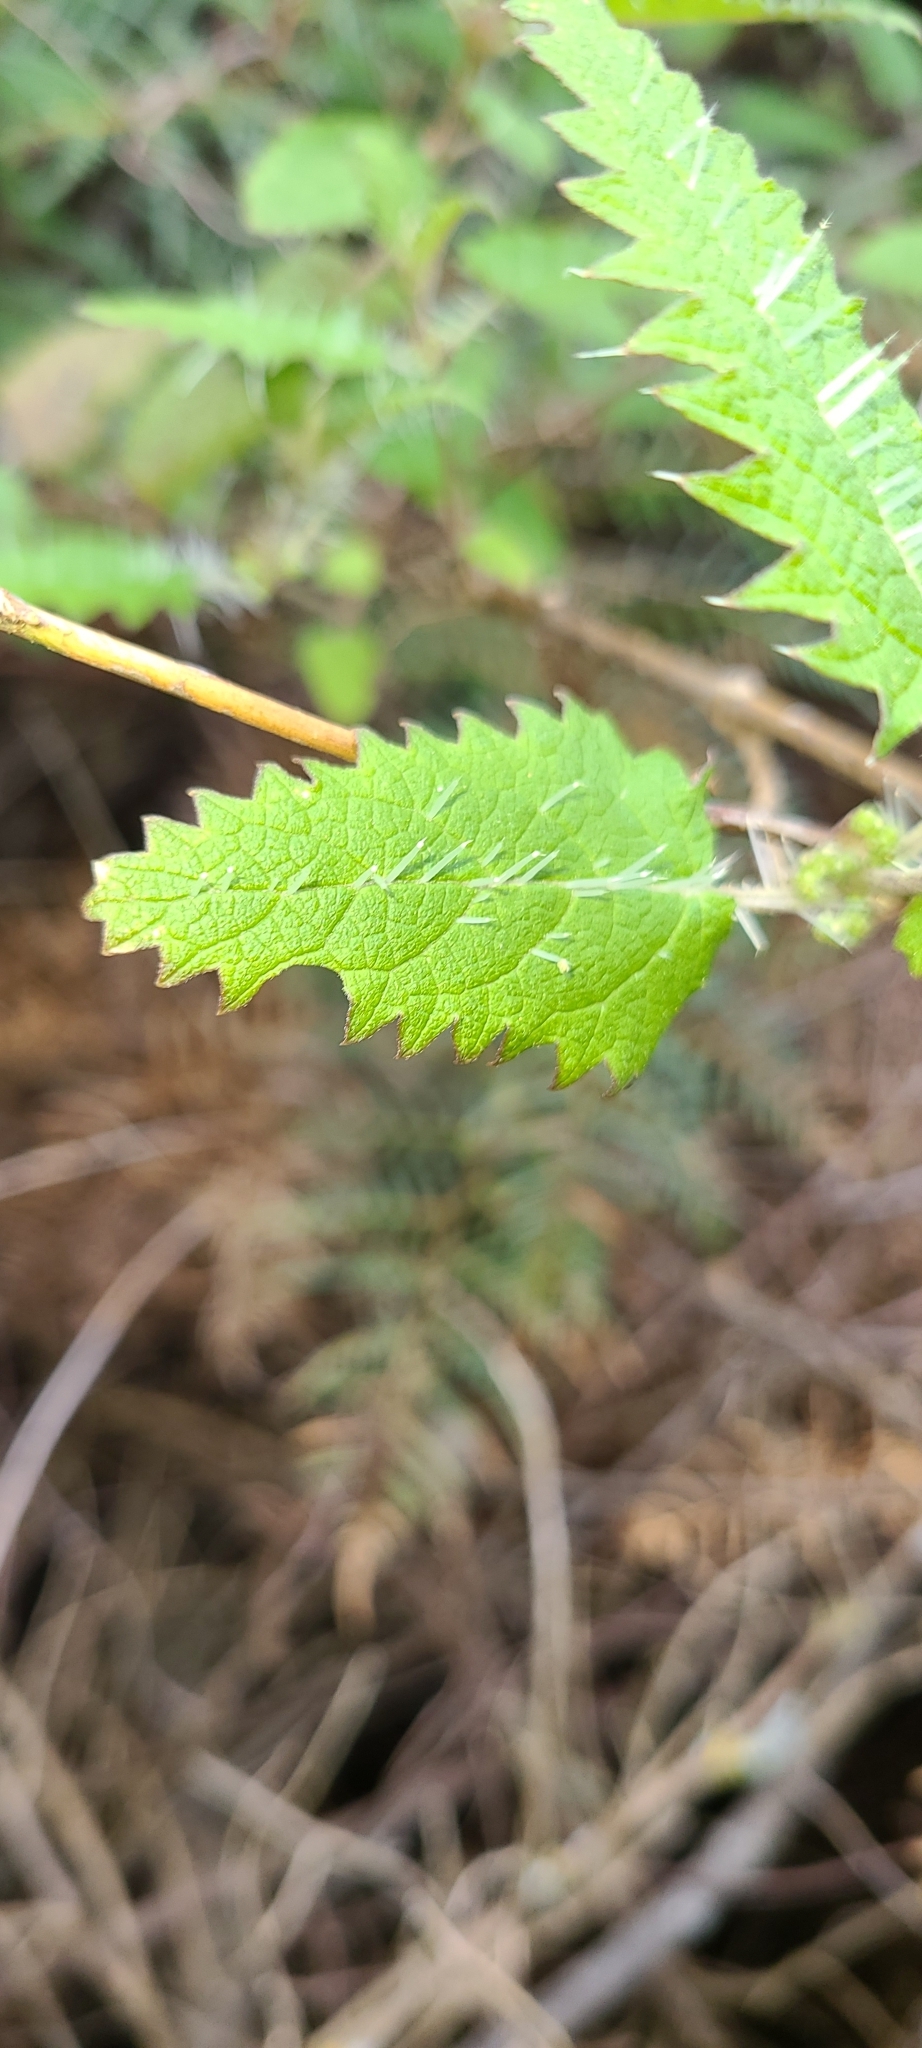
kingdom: Plantae
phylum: Tracheophyta
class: Magnoliopsida
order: Rosales
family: Urticaceae
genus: Urtica
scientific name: Urtica ferox
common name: Tree nettle
